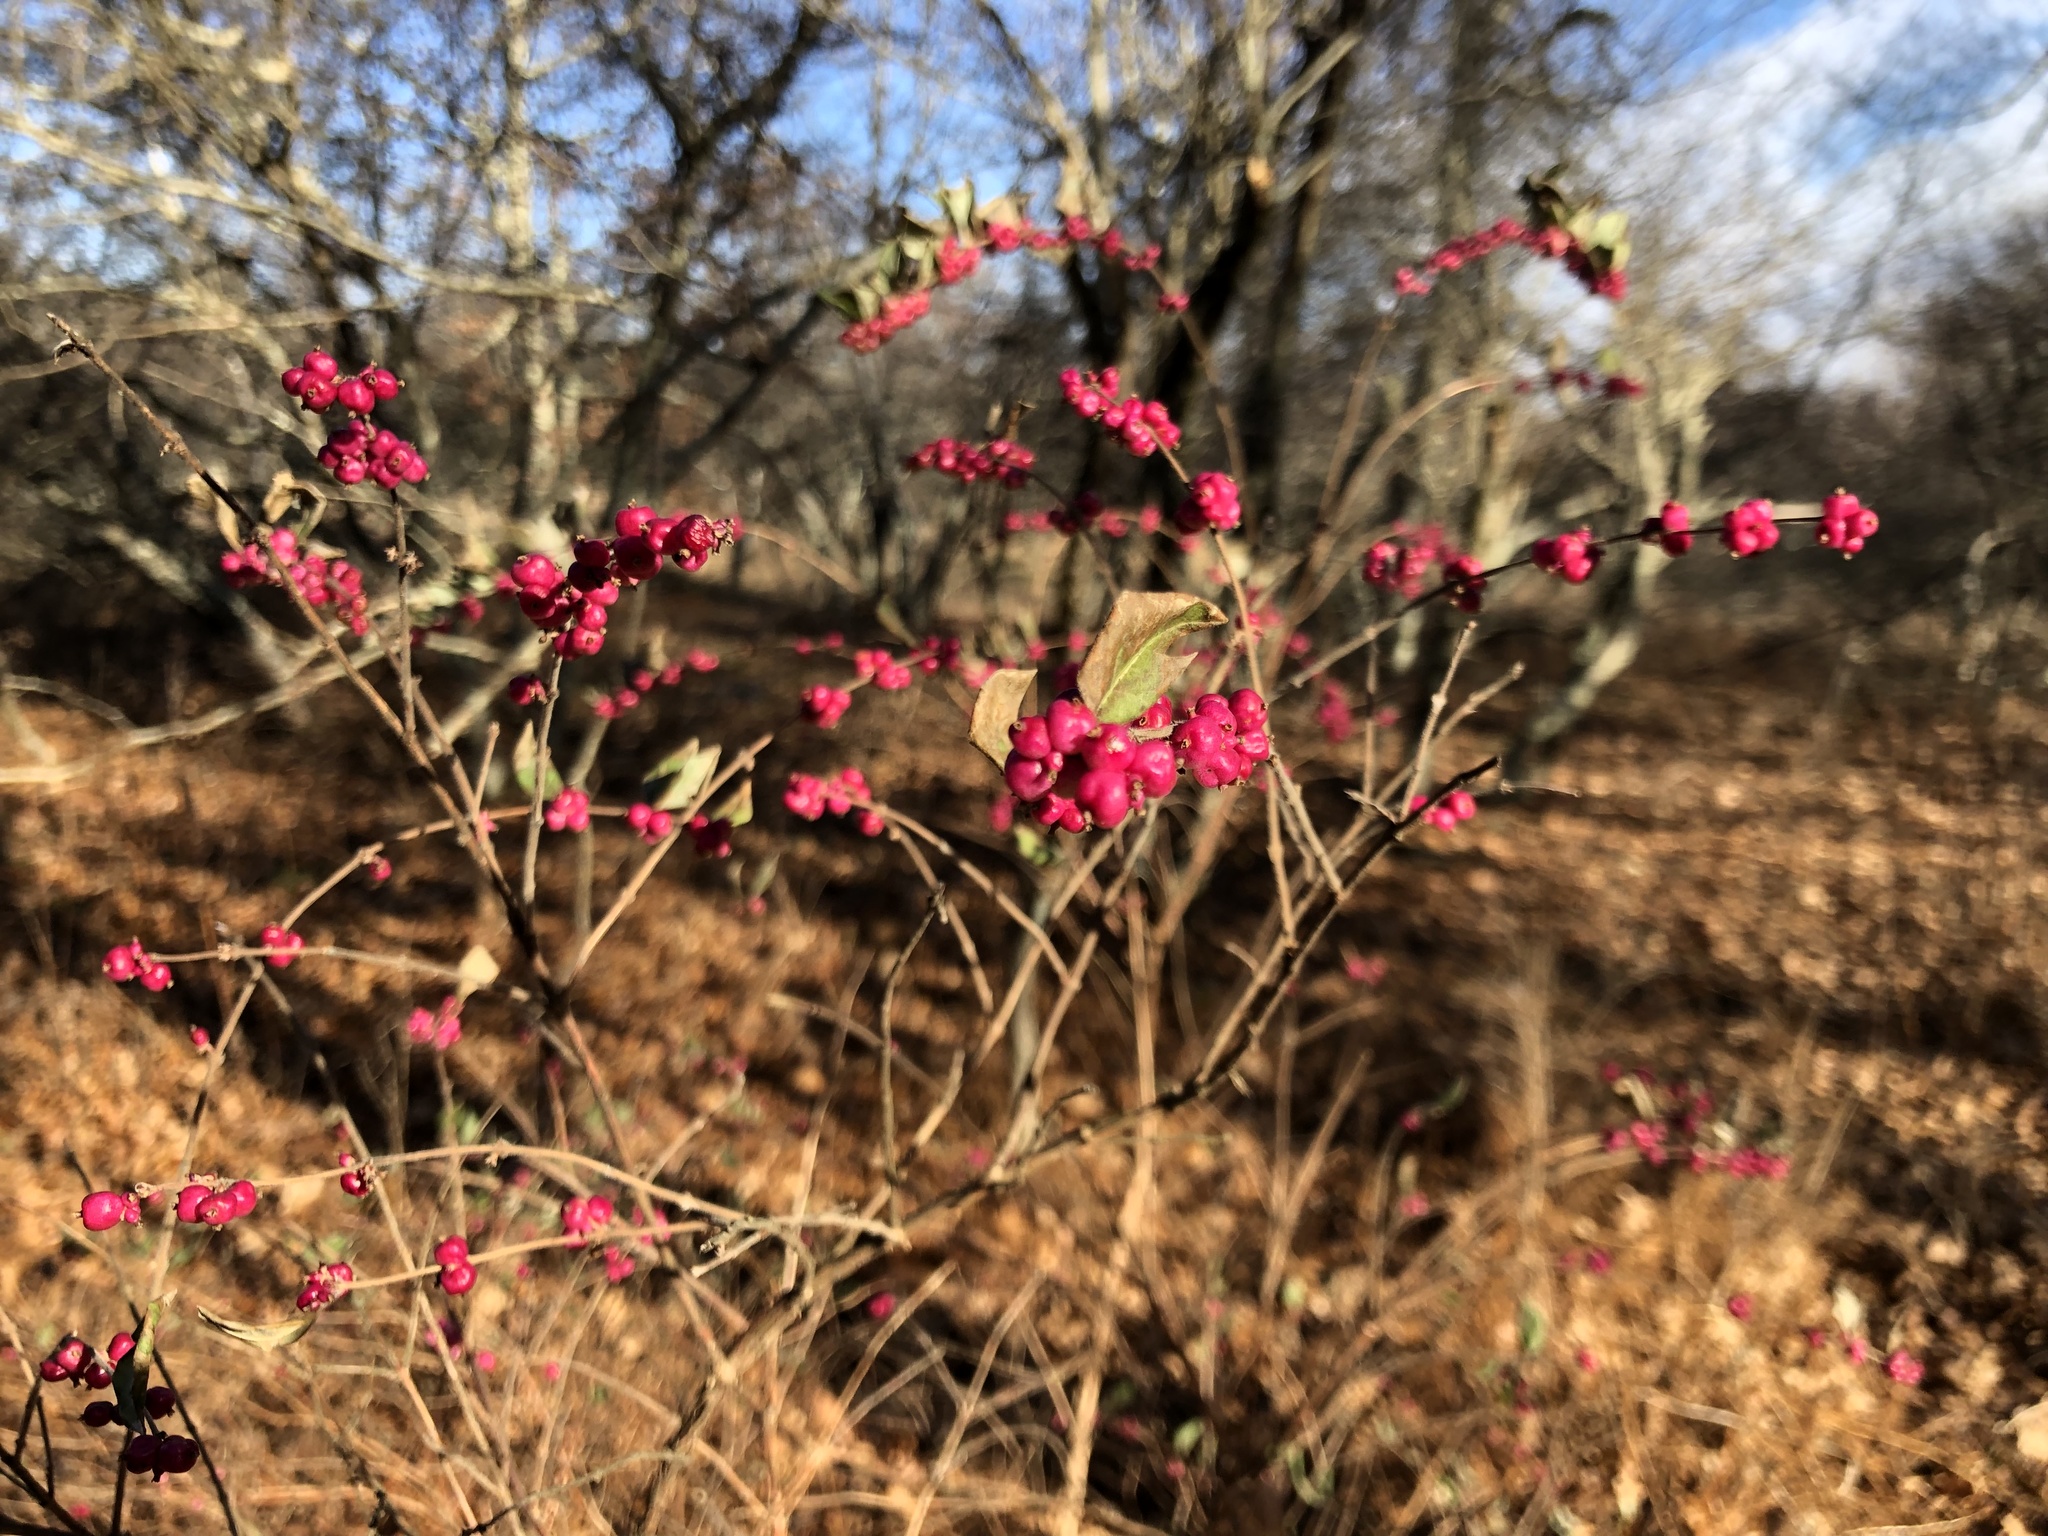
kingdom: Plantae
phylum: Tracheophyta
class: Magnoliopsida
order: Dipsacales
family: Caprifoliaceae
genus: Symphoricarpos
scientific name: Symphoricarpos orbiculatus
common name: Coralberry
